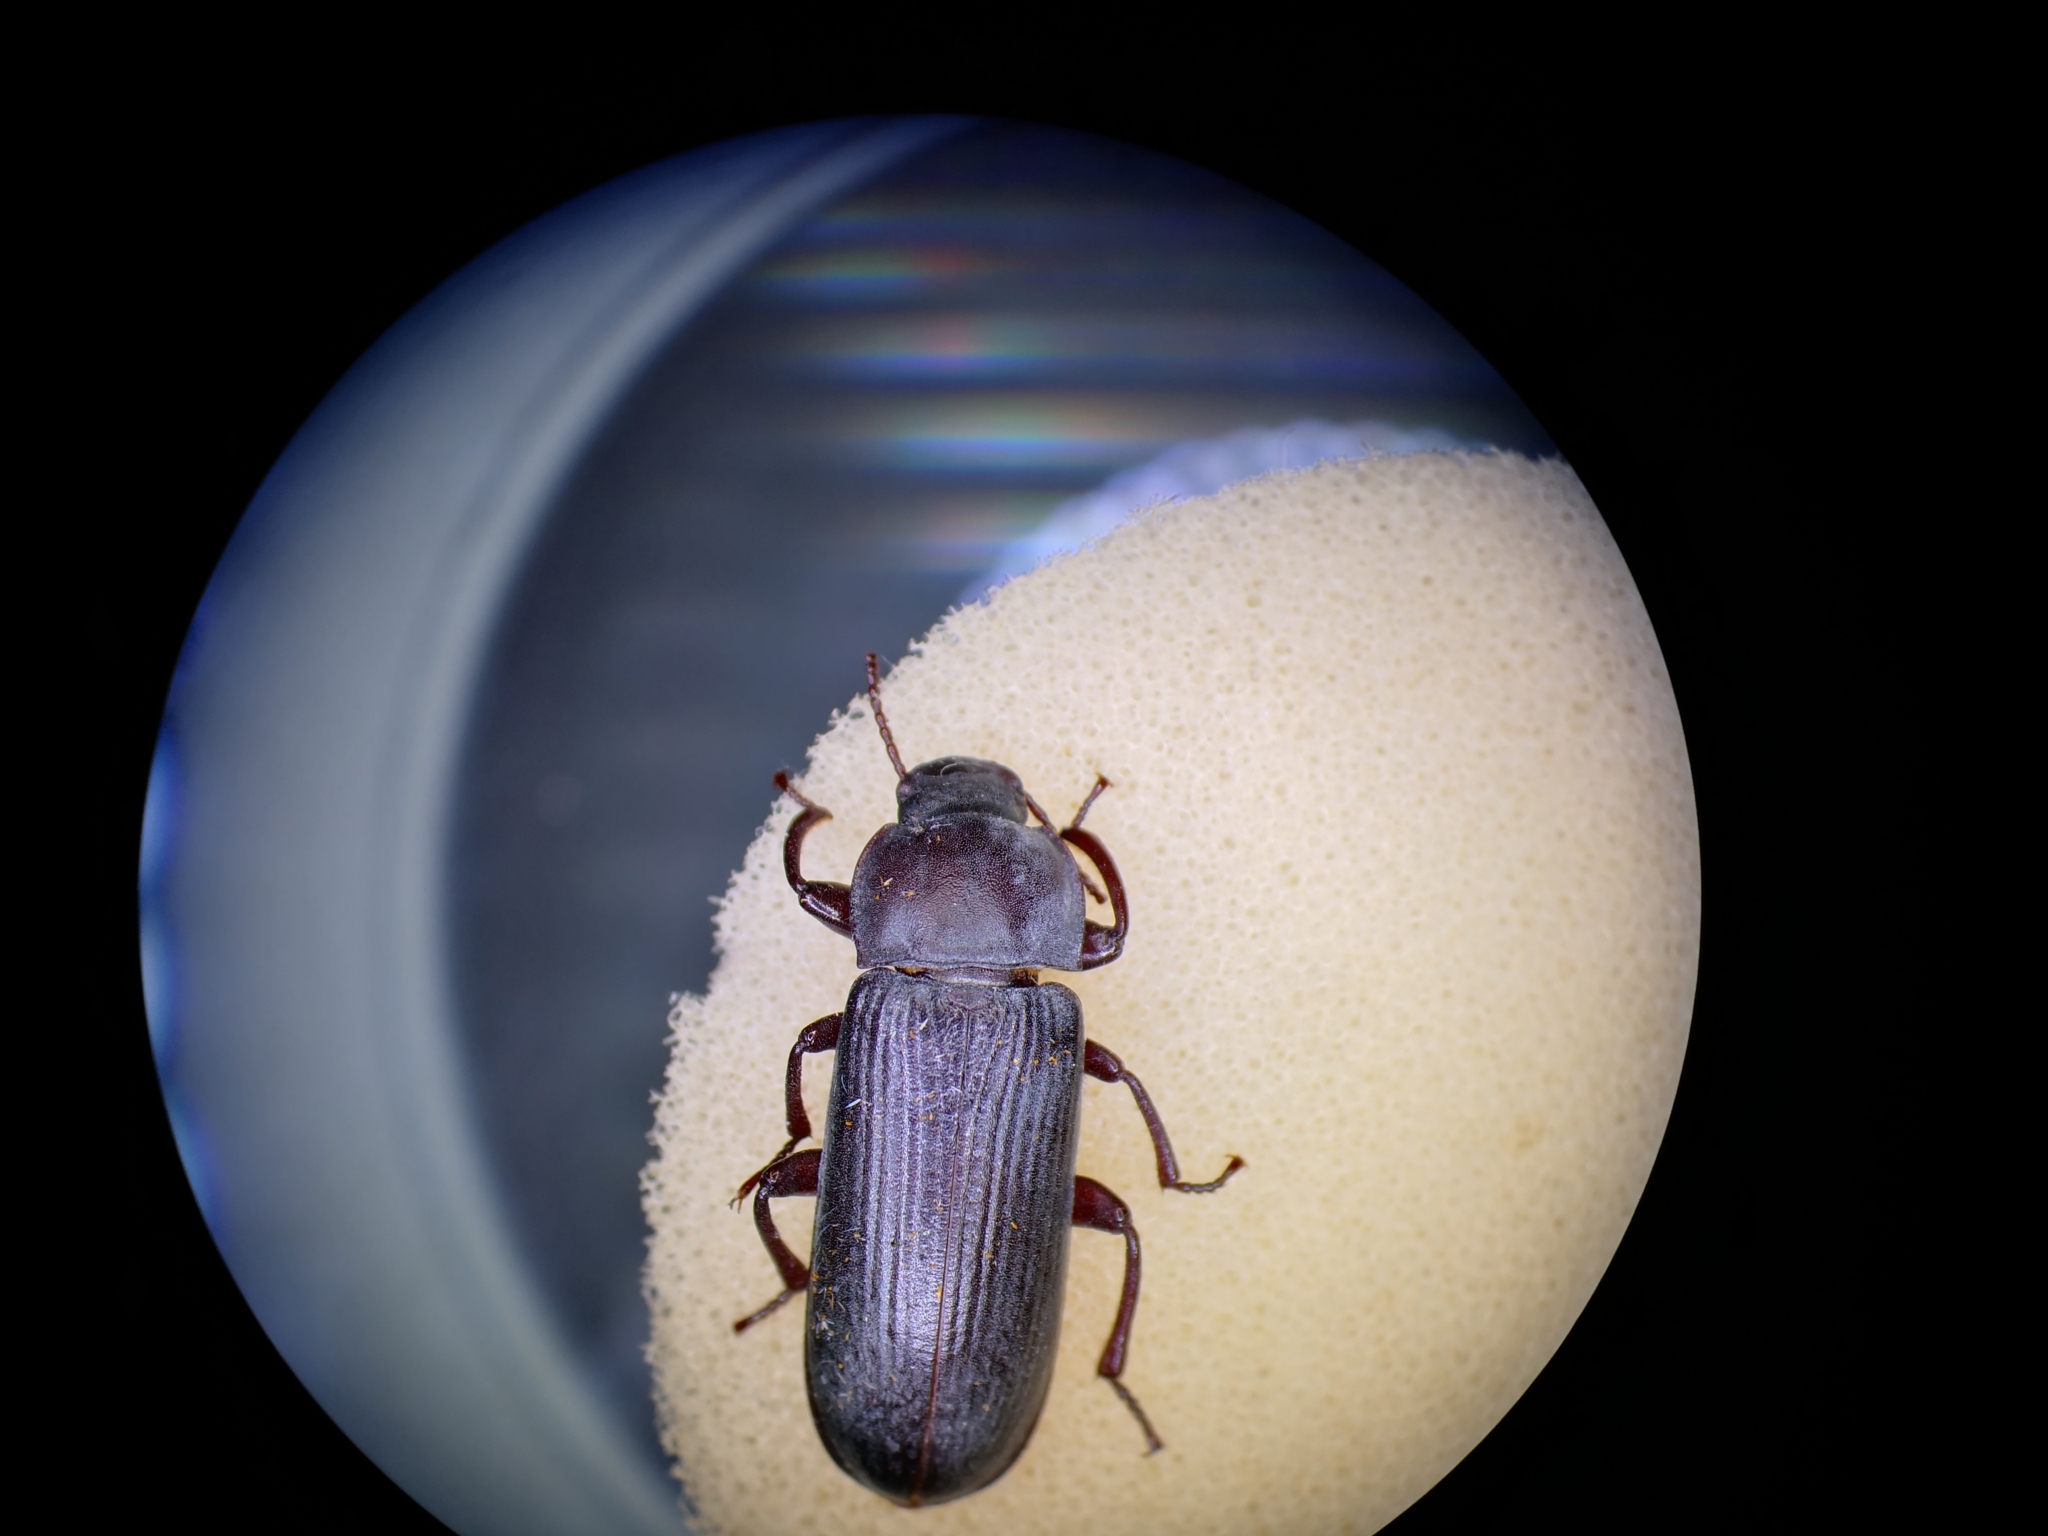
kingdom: Animalia
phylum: Arthropoda
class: Insecta
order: Coleoptera
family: Tenebrionidae
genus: Tenebrio
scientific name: Tenebrio molitor
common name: Hardback beetle
